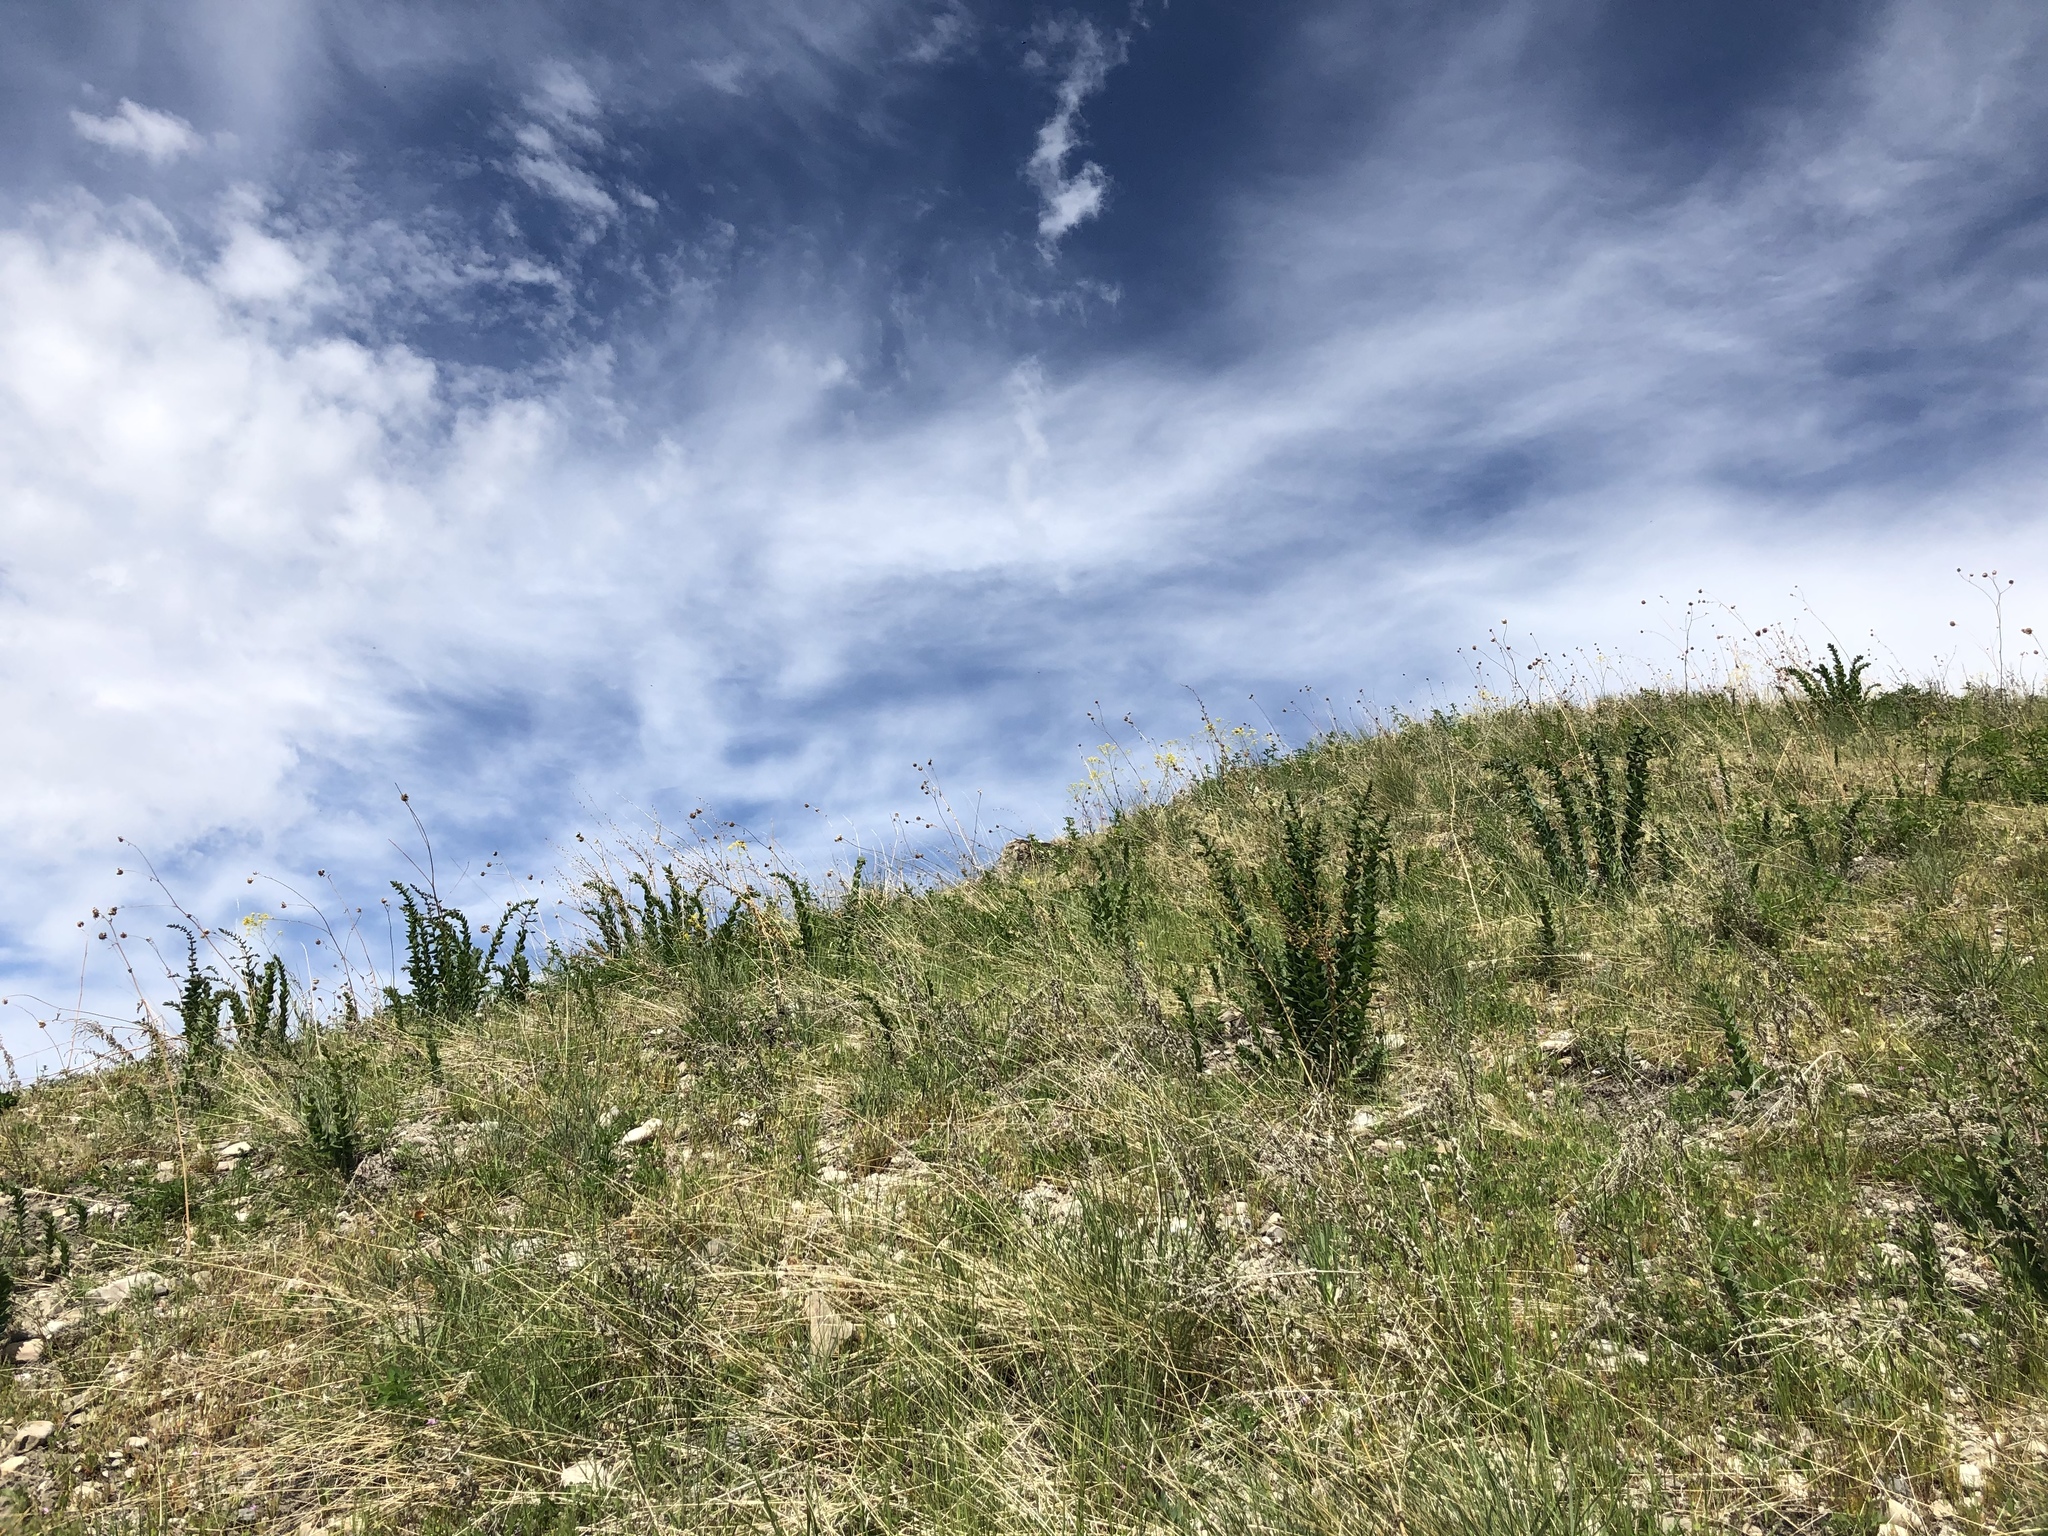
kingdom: Plantae
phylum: Tracheophyta
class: Magnoliopsida
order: Lamiales
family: Plantaginaceae
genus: Linaria
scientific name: Linaria dalmatica
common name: Dalmatian toadflax
